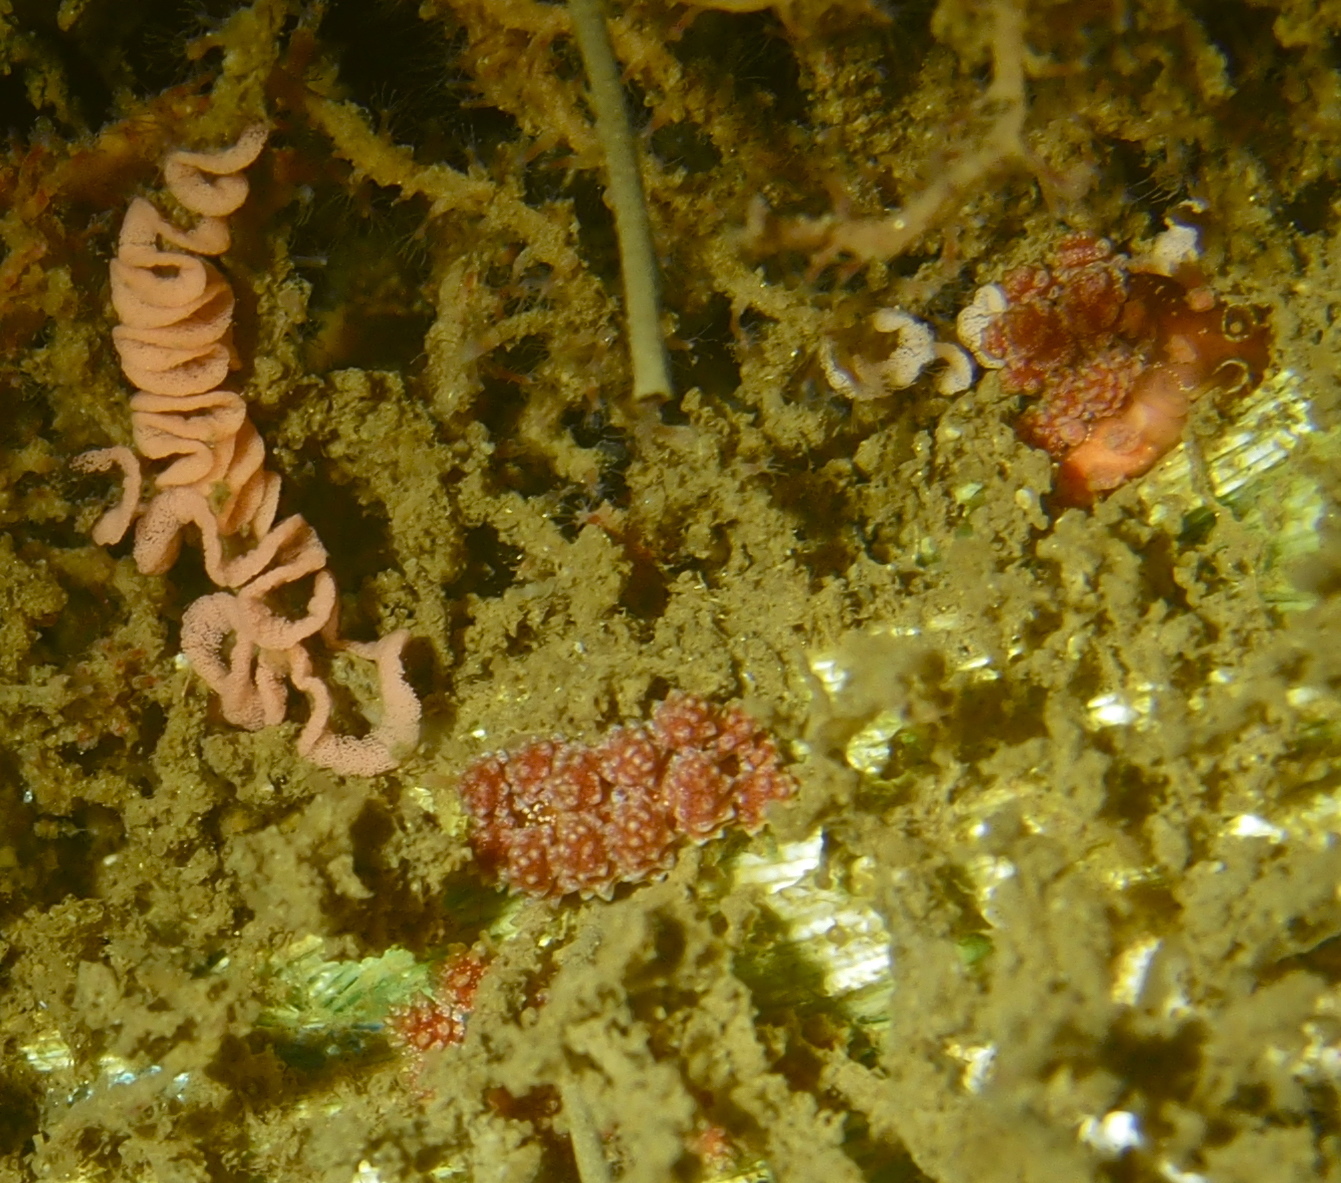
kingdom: Animalia
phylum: Mollusca
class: Gastropoda
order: Nudibranchia
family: Dotidae
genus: Doto
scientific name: Doto fragilis
